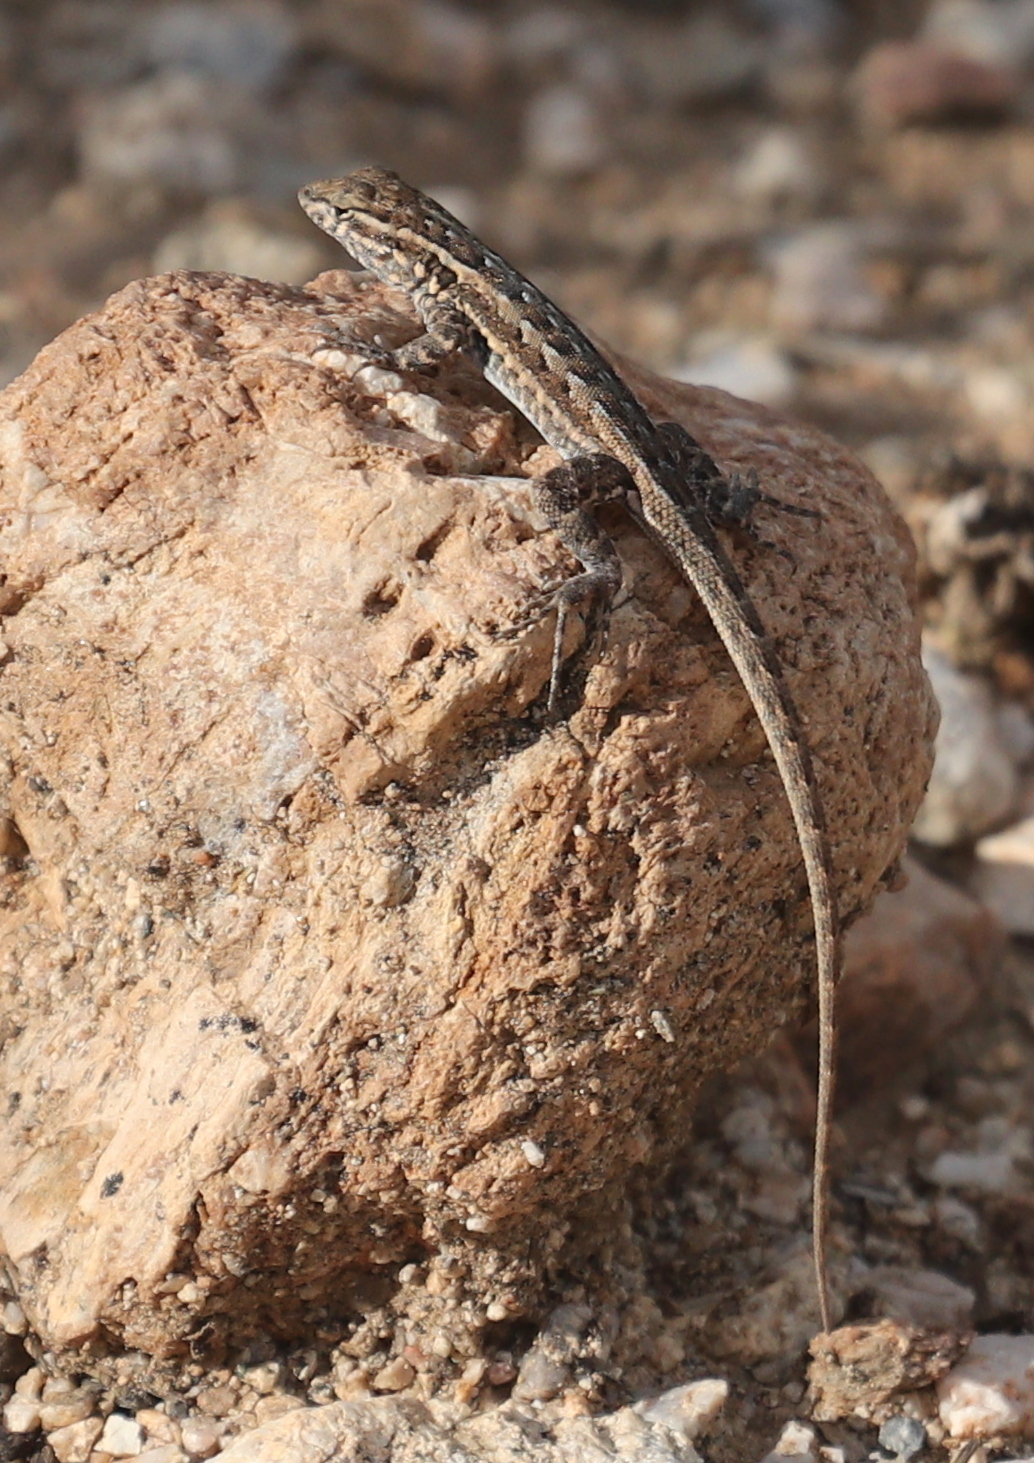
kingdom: Animalia
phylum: Chordata
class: Squamata
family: Phrynosomatidae
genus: Uta
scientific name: Uta stansburiana
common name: Side-blotched lizard
